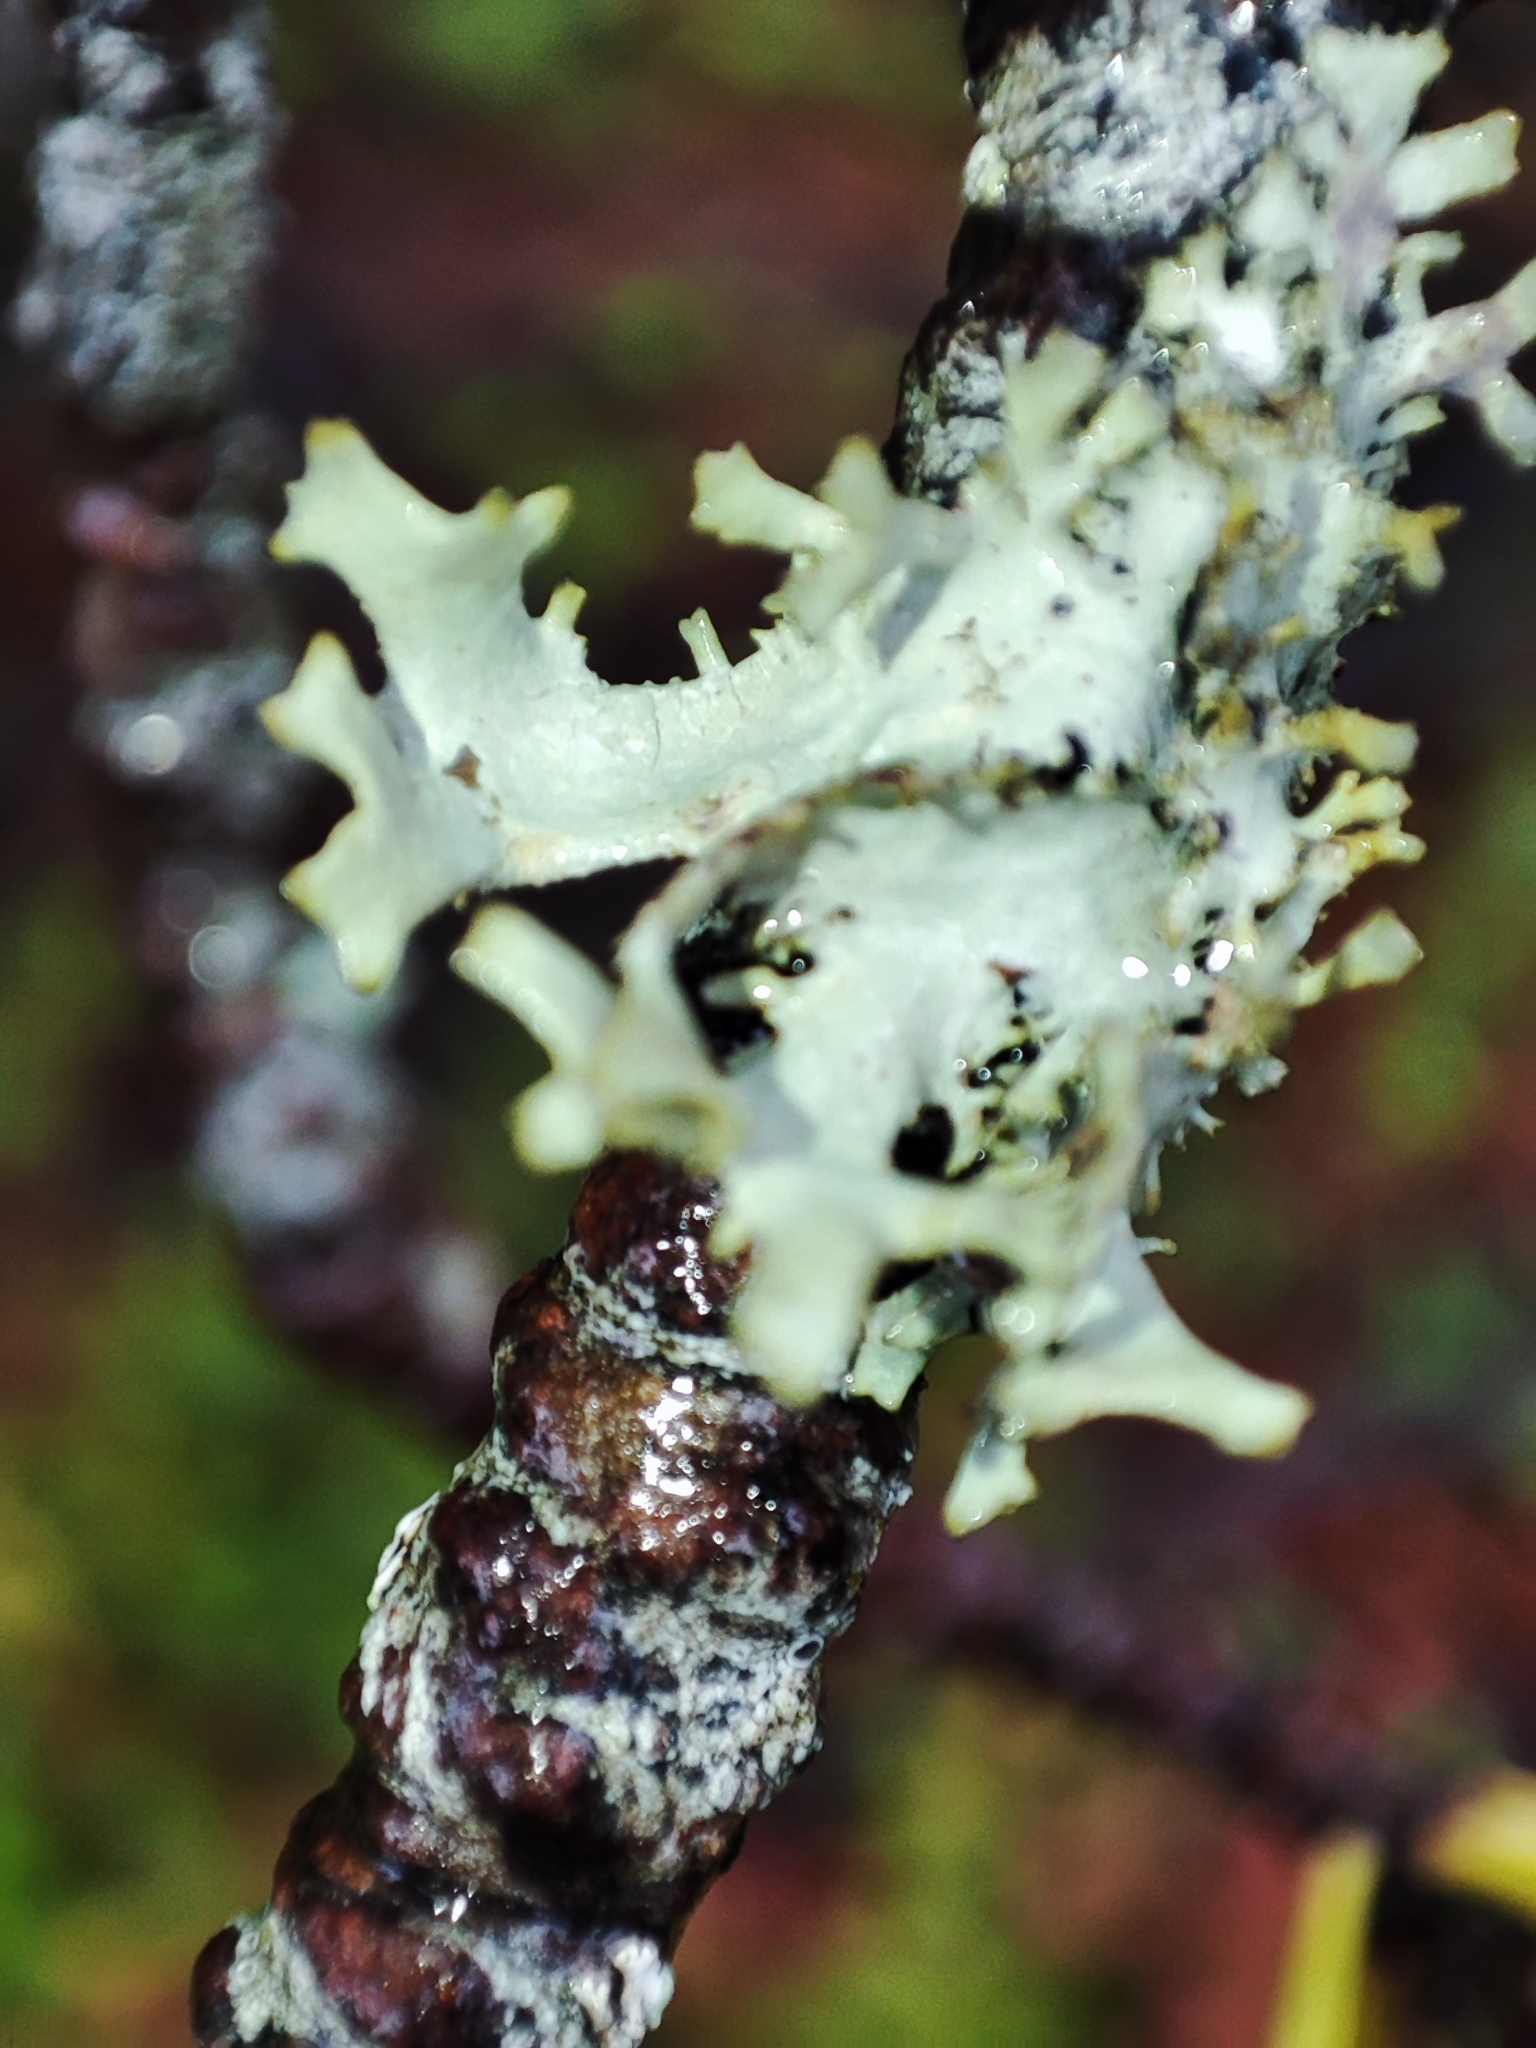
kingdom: Fungi
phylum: Ascomycota
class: Lecanoromycetes
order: Lecanorales
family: Parmeliaceae
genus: Pseudevernia
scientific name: Pseudevernia furfuracea
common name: Tree moss
